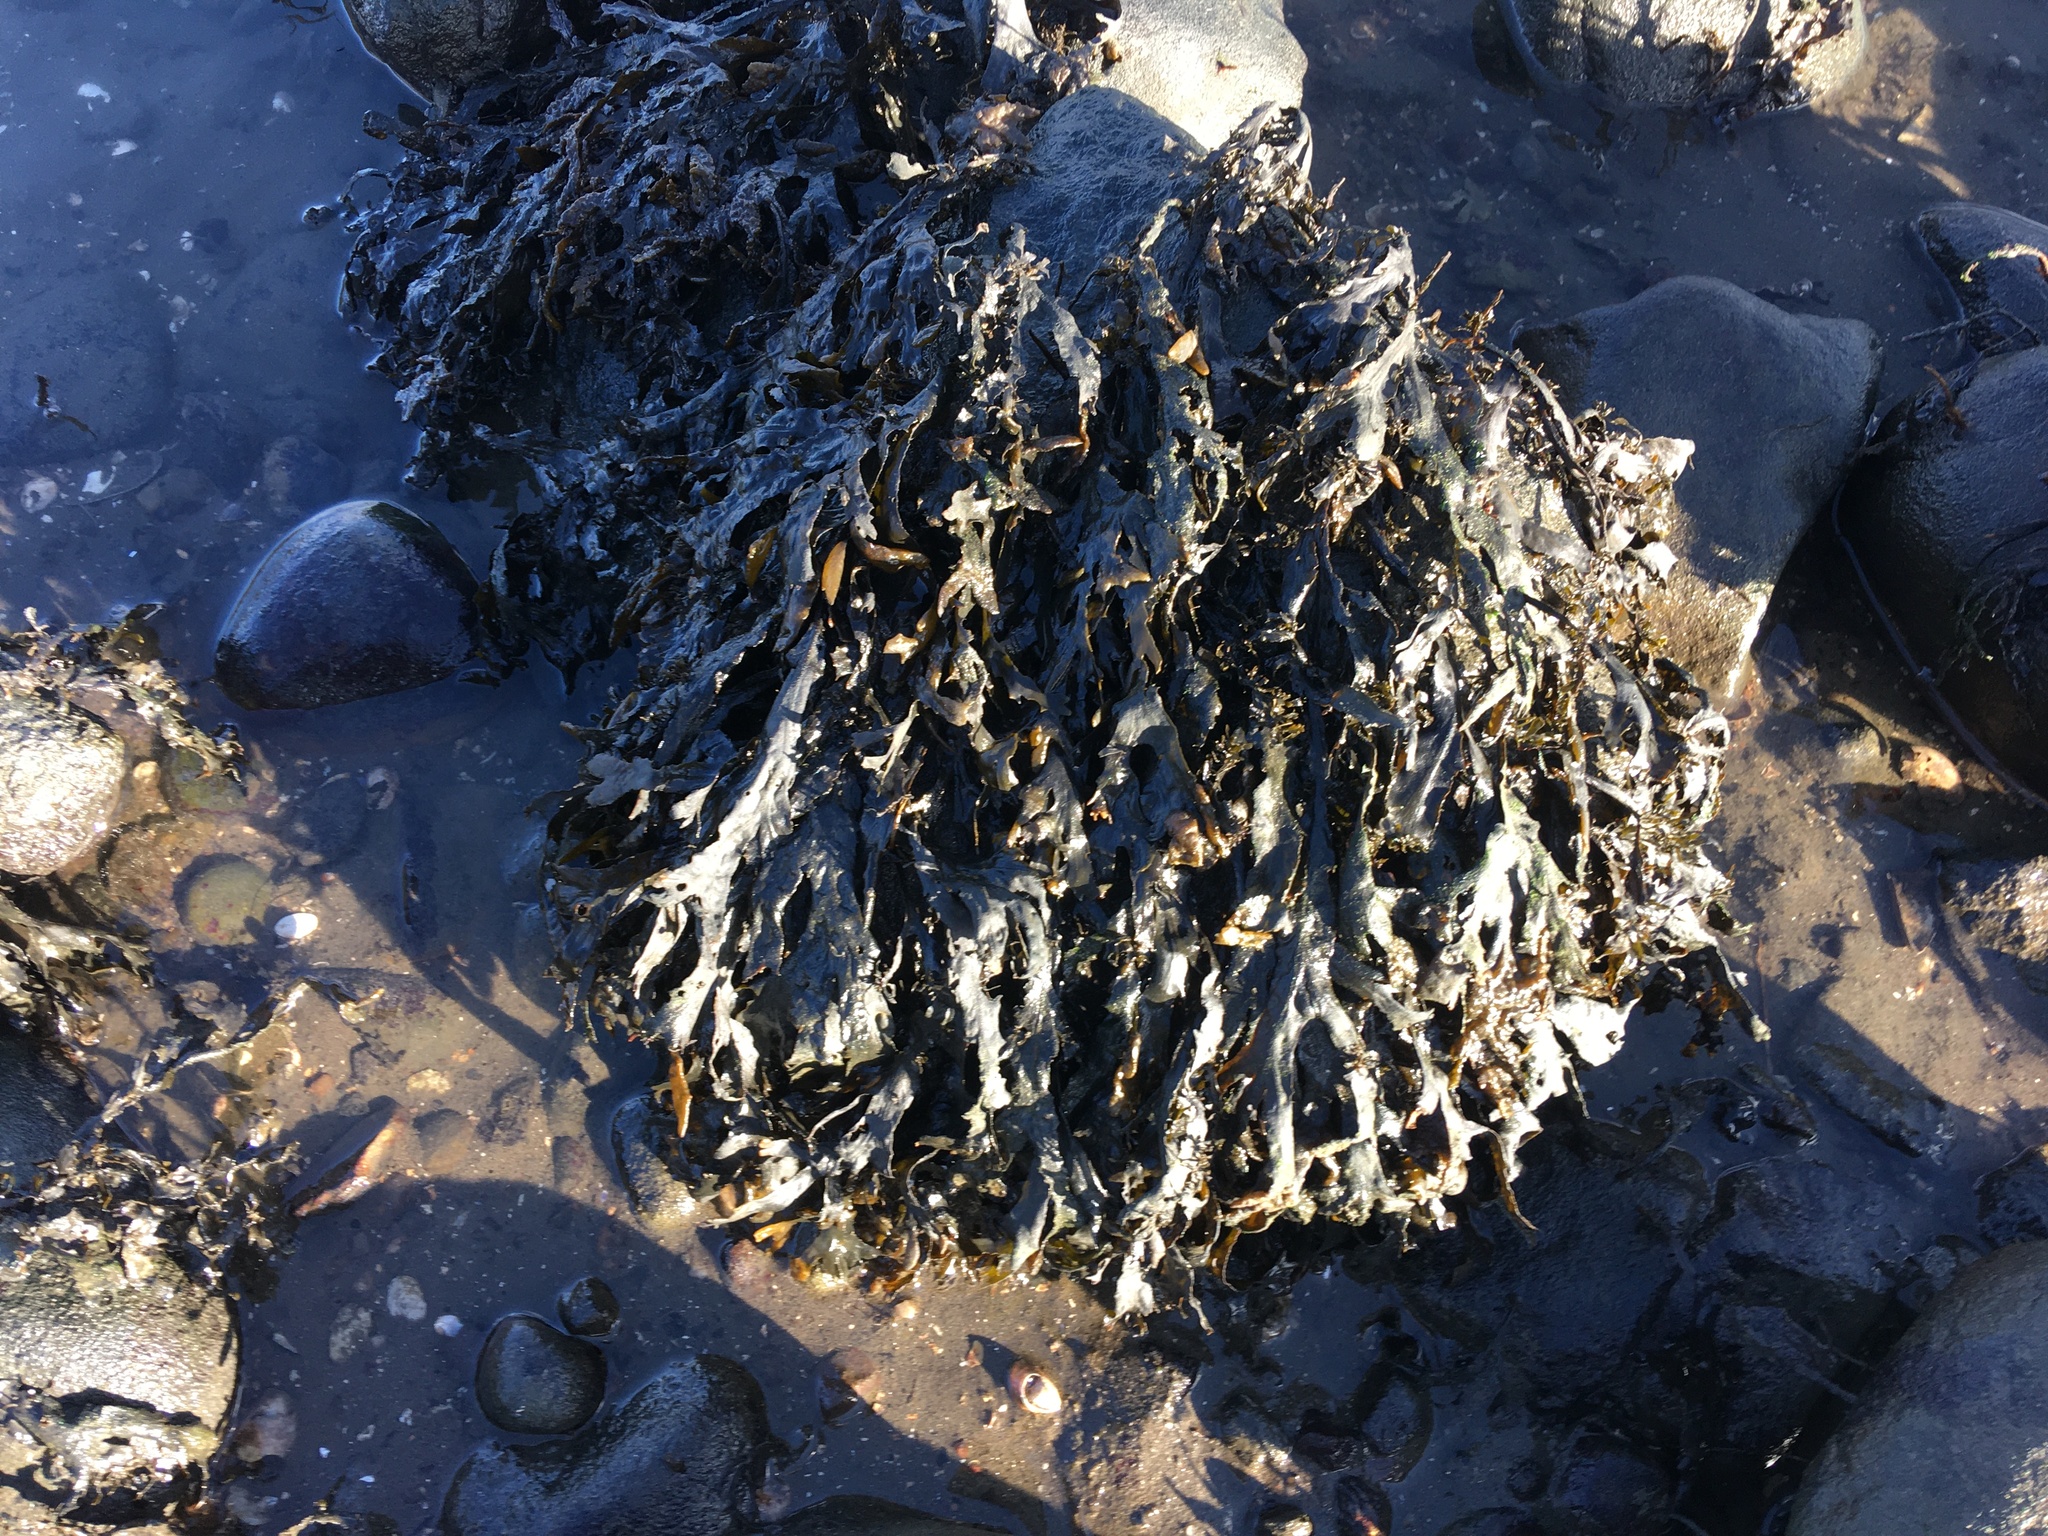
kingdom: Chromista
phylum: Ochrophyta
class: Phaeophyceae
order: Fucales
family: Fucaceae
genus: Fucus
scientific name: Fucus vesiculosus
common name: Bladder wrack
